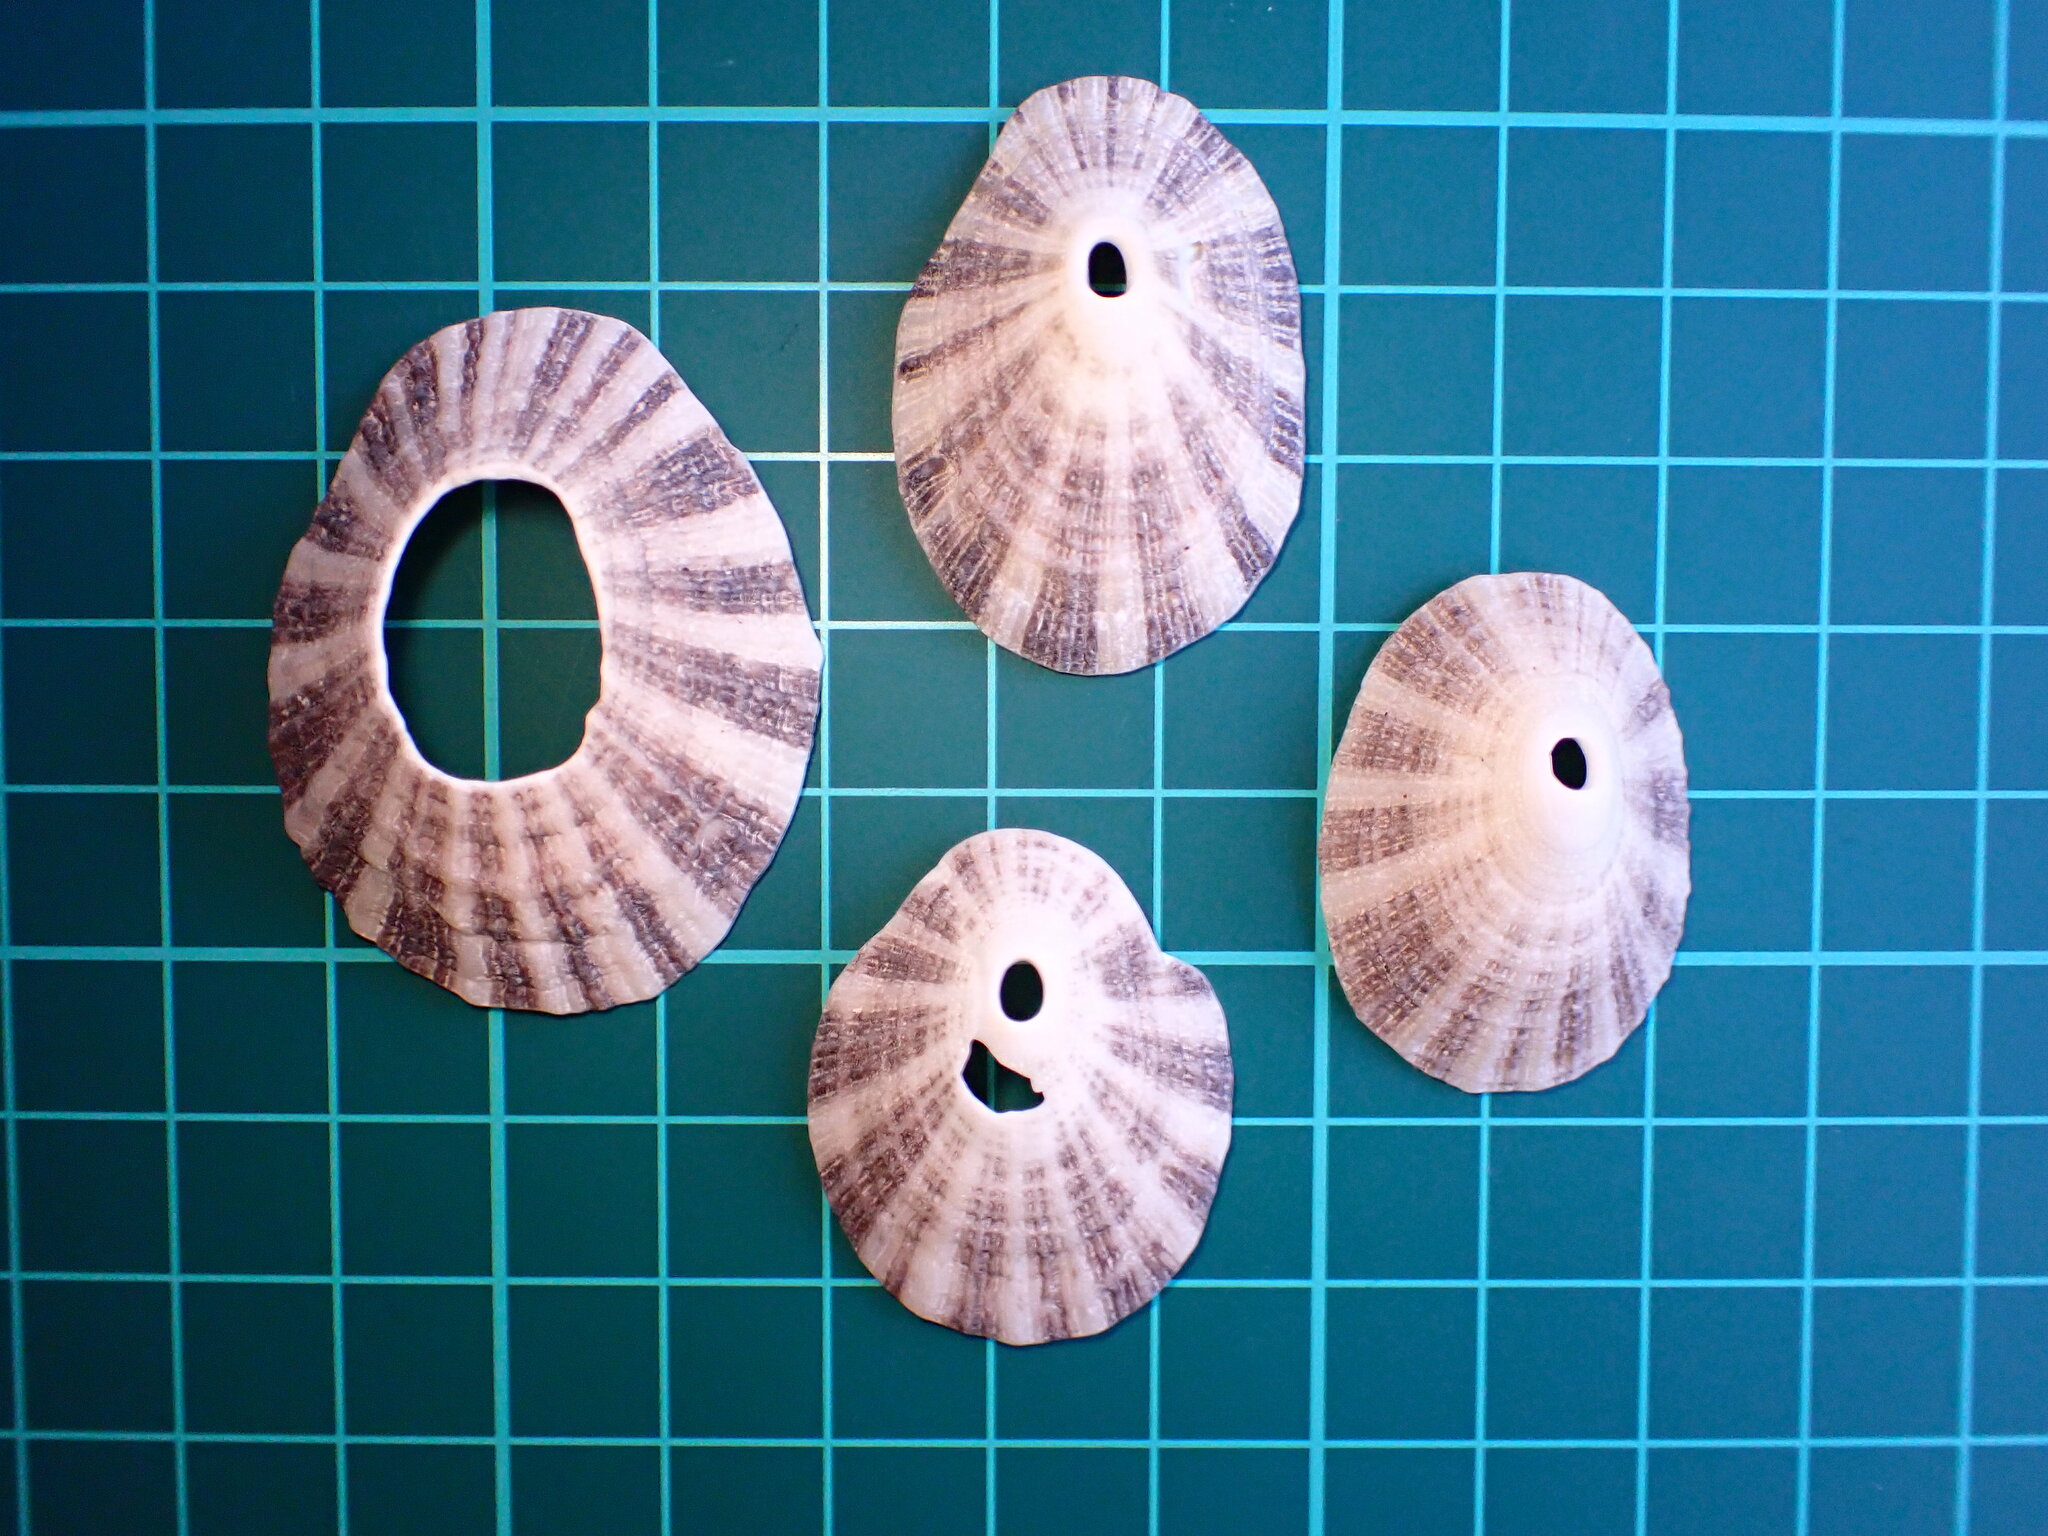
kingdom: Animalia
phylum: Mollusca
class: Gastropoda
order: Lepetellida
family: Fissurellidae
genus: Diodora
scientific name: Diodora aspera
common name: Rough keyhole limpet
